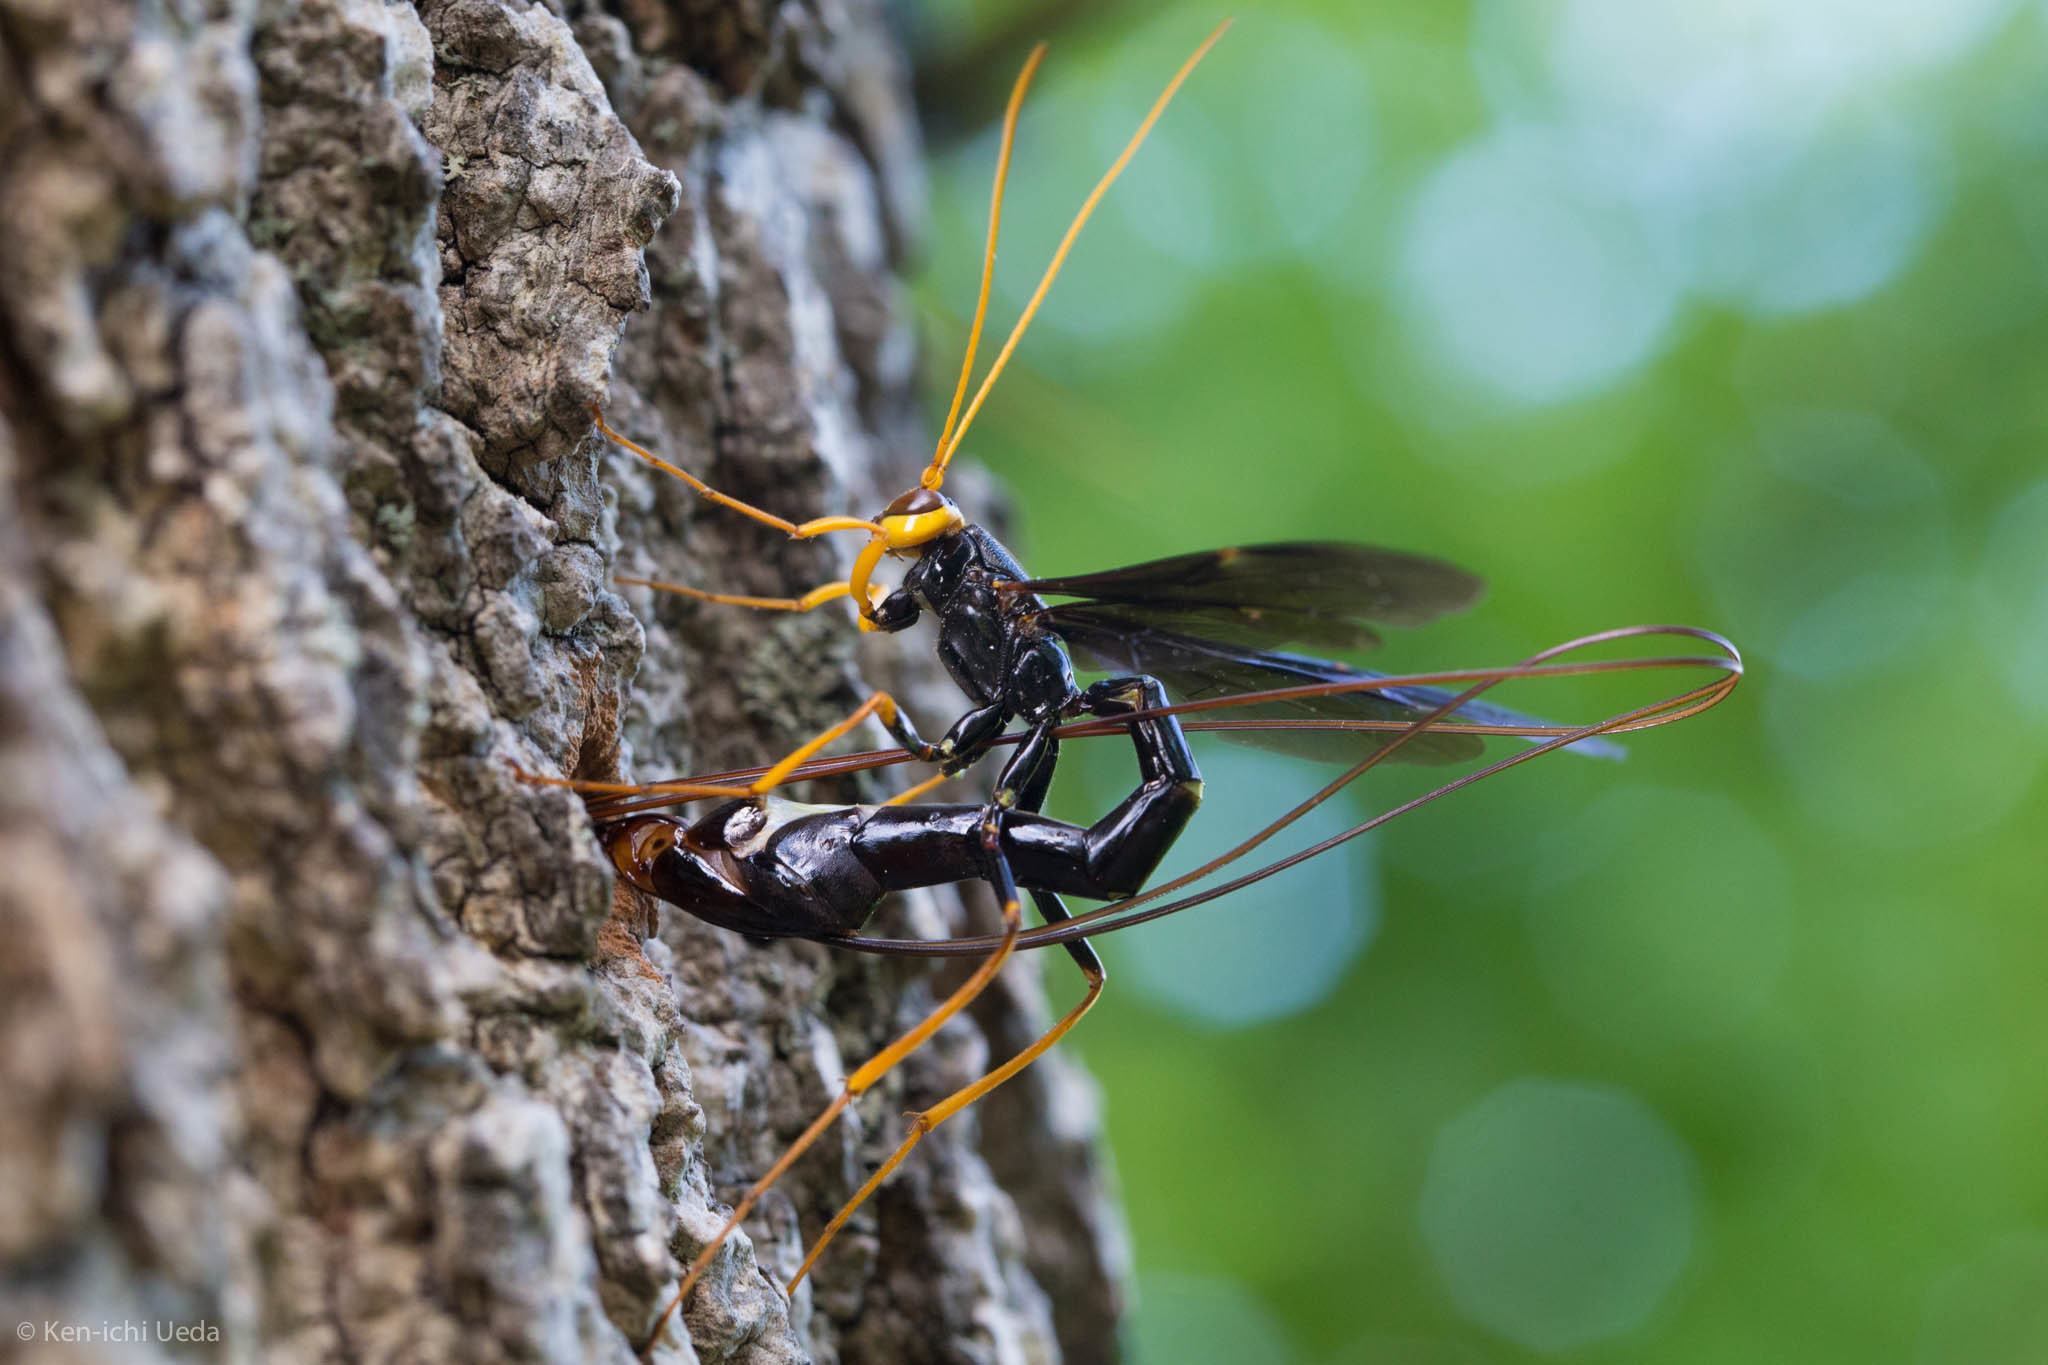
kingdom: Animalia
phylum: Arthropoda
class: Insecta
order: Hymenoptera
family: Ichneumonidae
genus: Megarhyssa
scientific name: Megarhyssa atrata
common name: Black giant ichneumonid wasp
